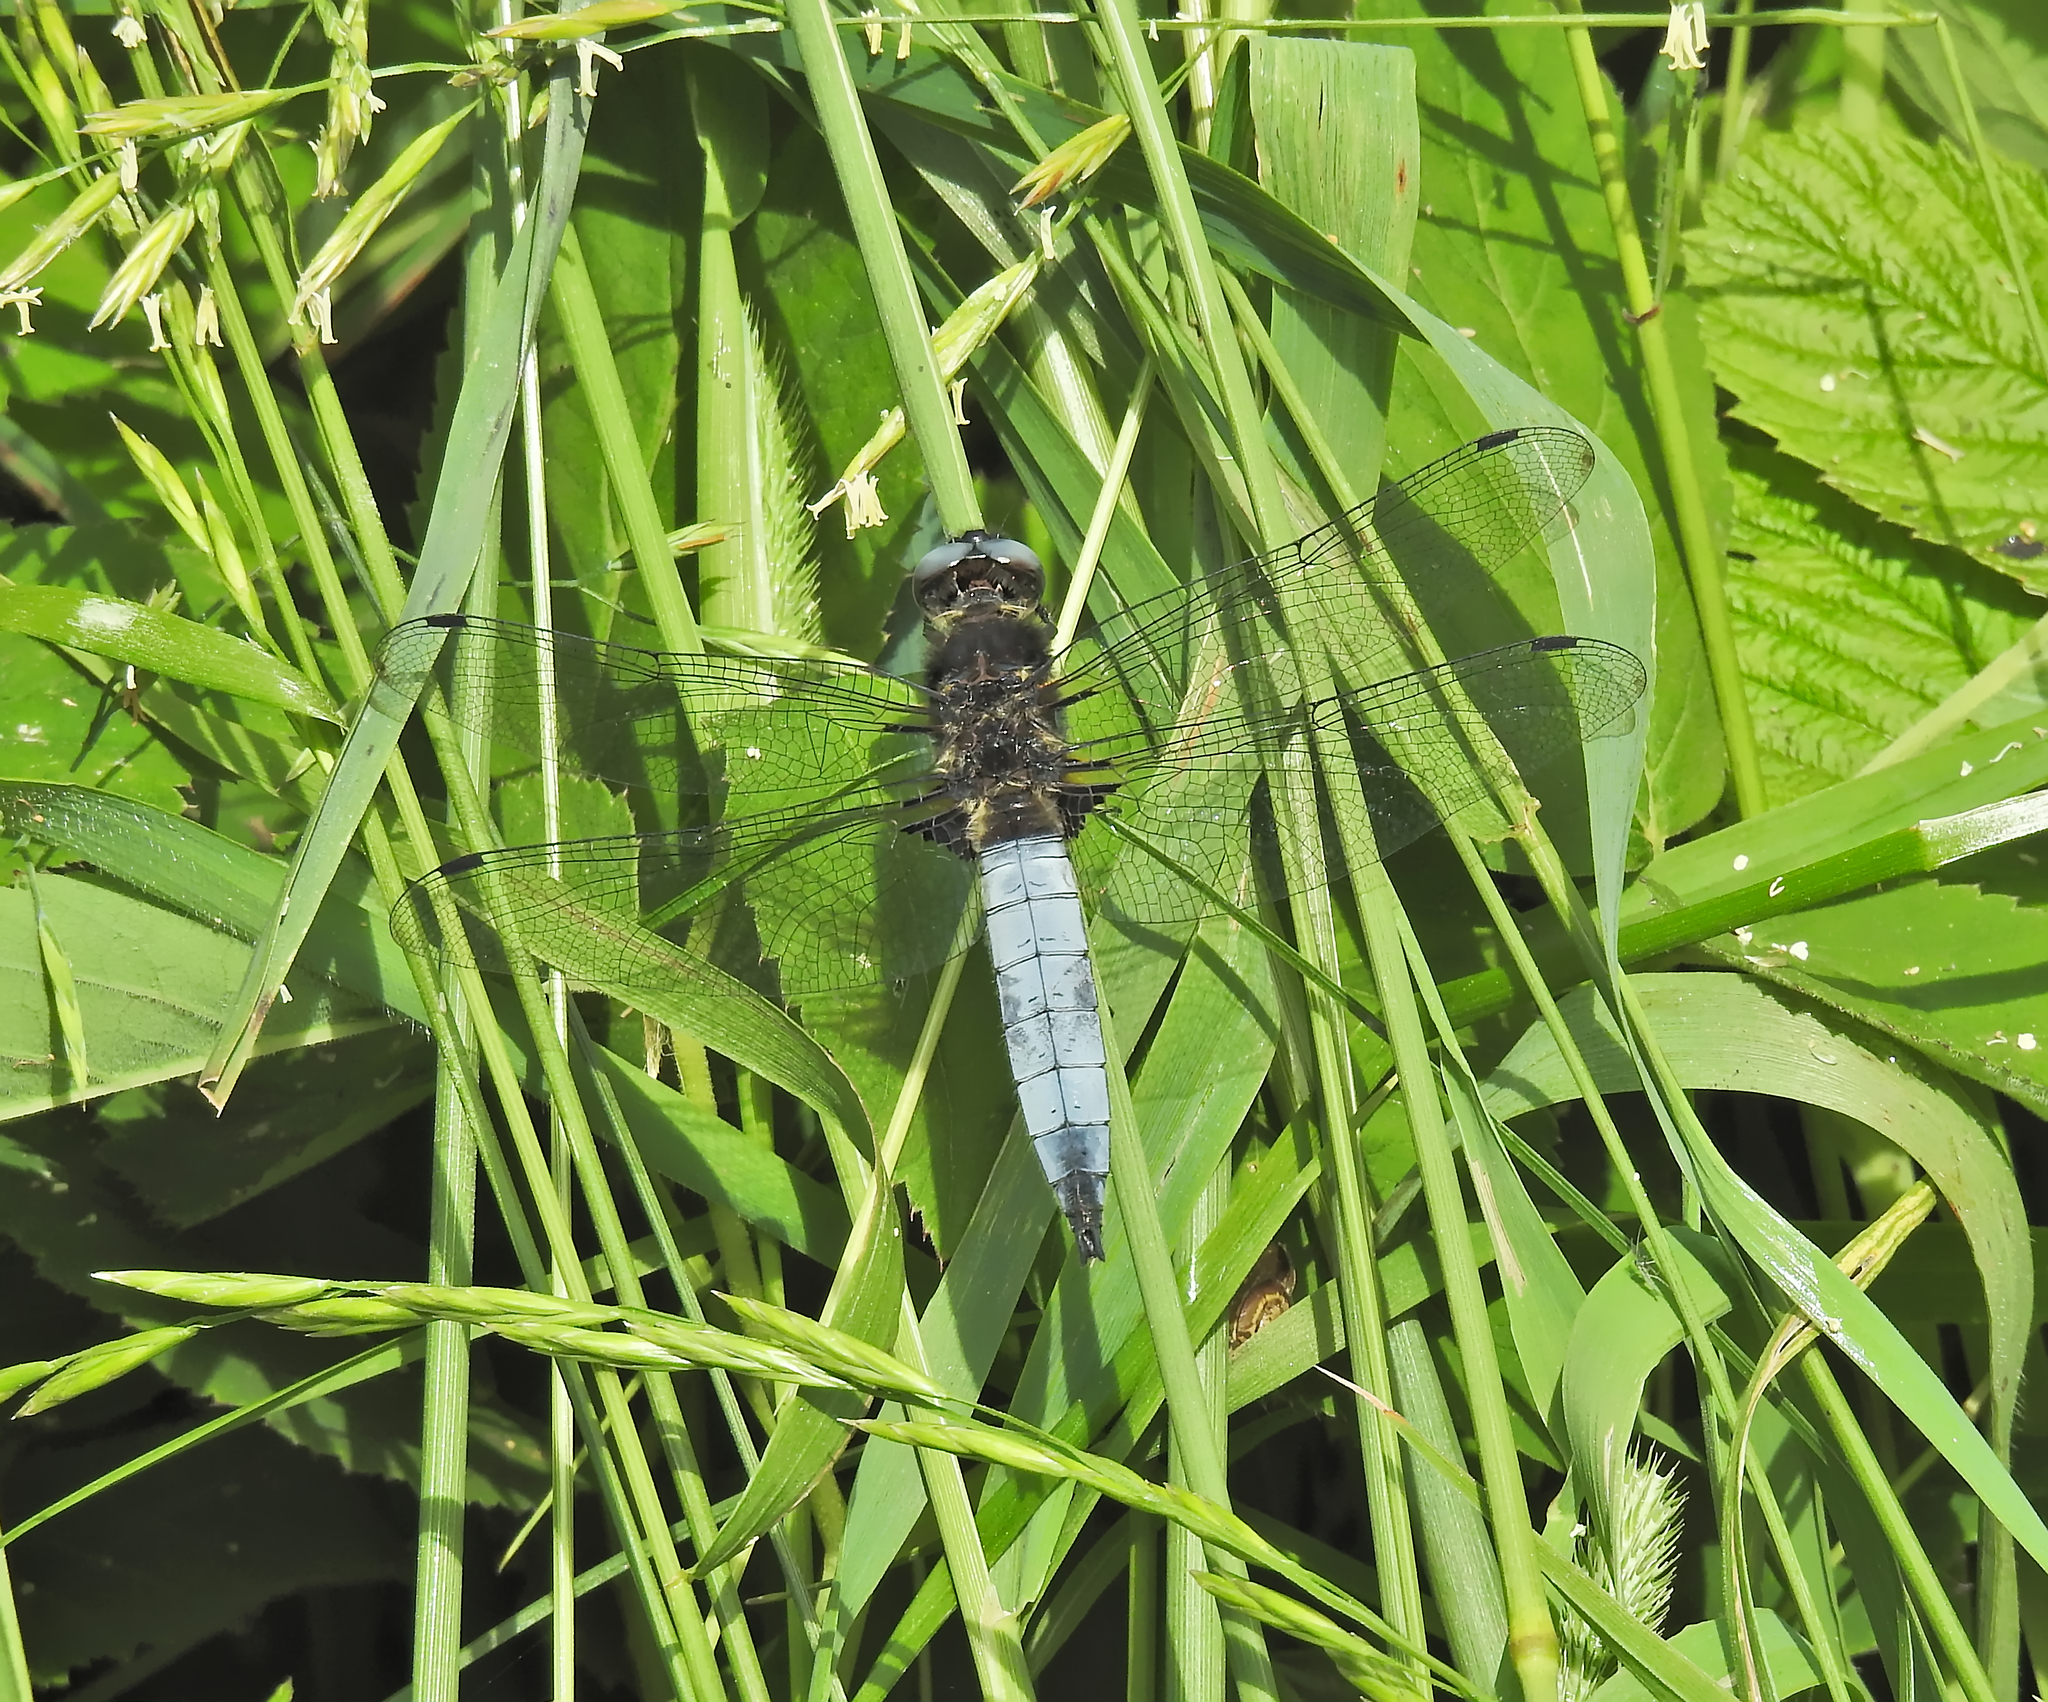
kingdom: Animalia
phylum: Arthropoda
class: Insecta
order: Odonata
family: Libellulidae
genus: Libellula
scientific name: Libellula fulva
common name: Blue chaser
